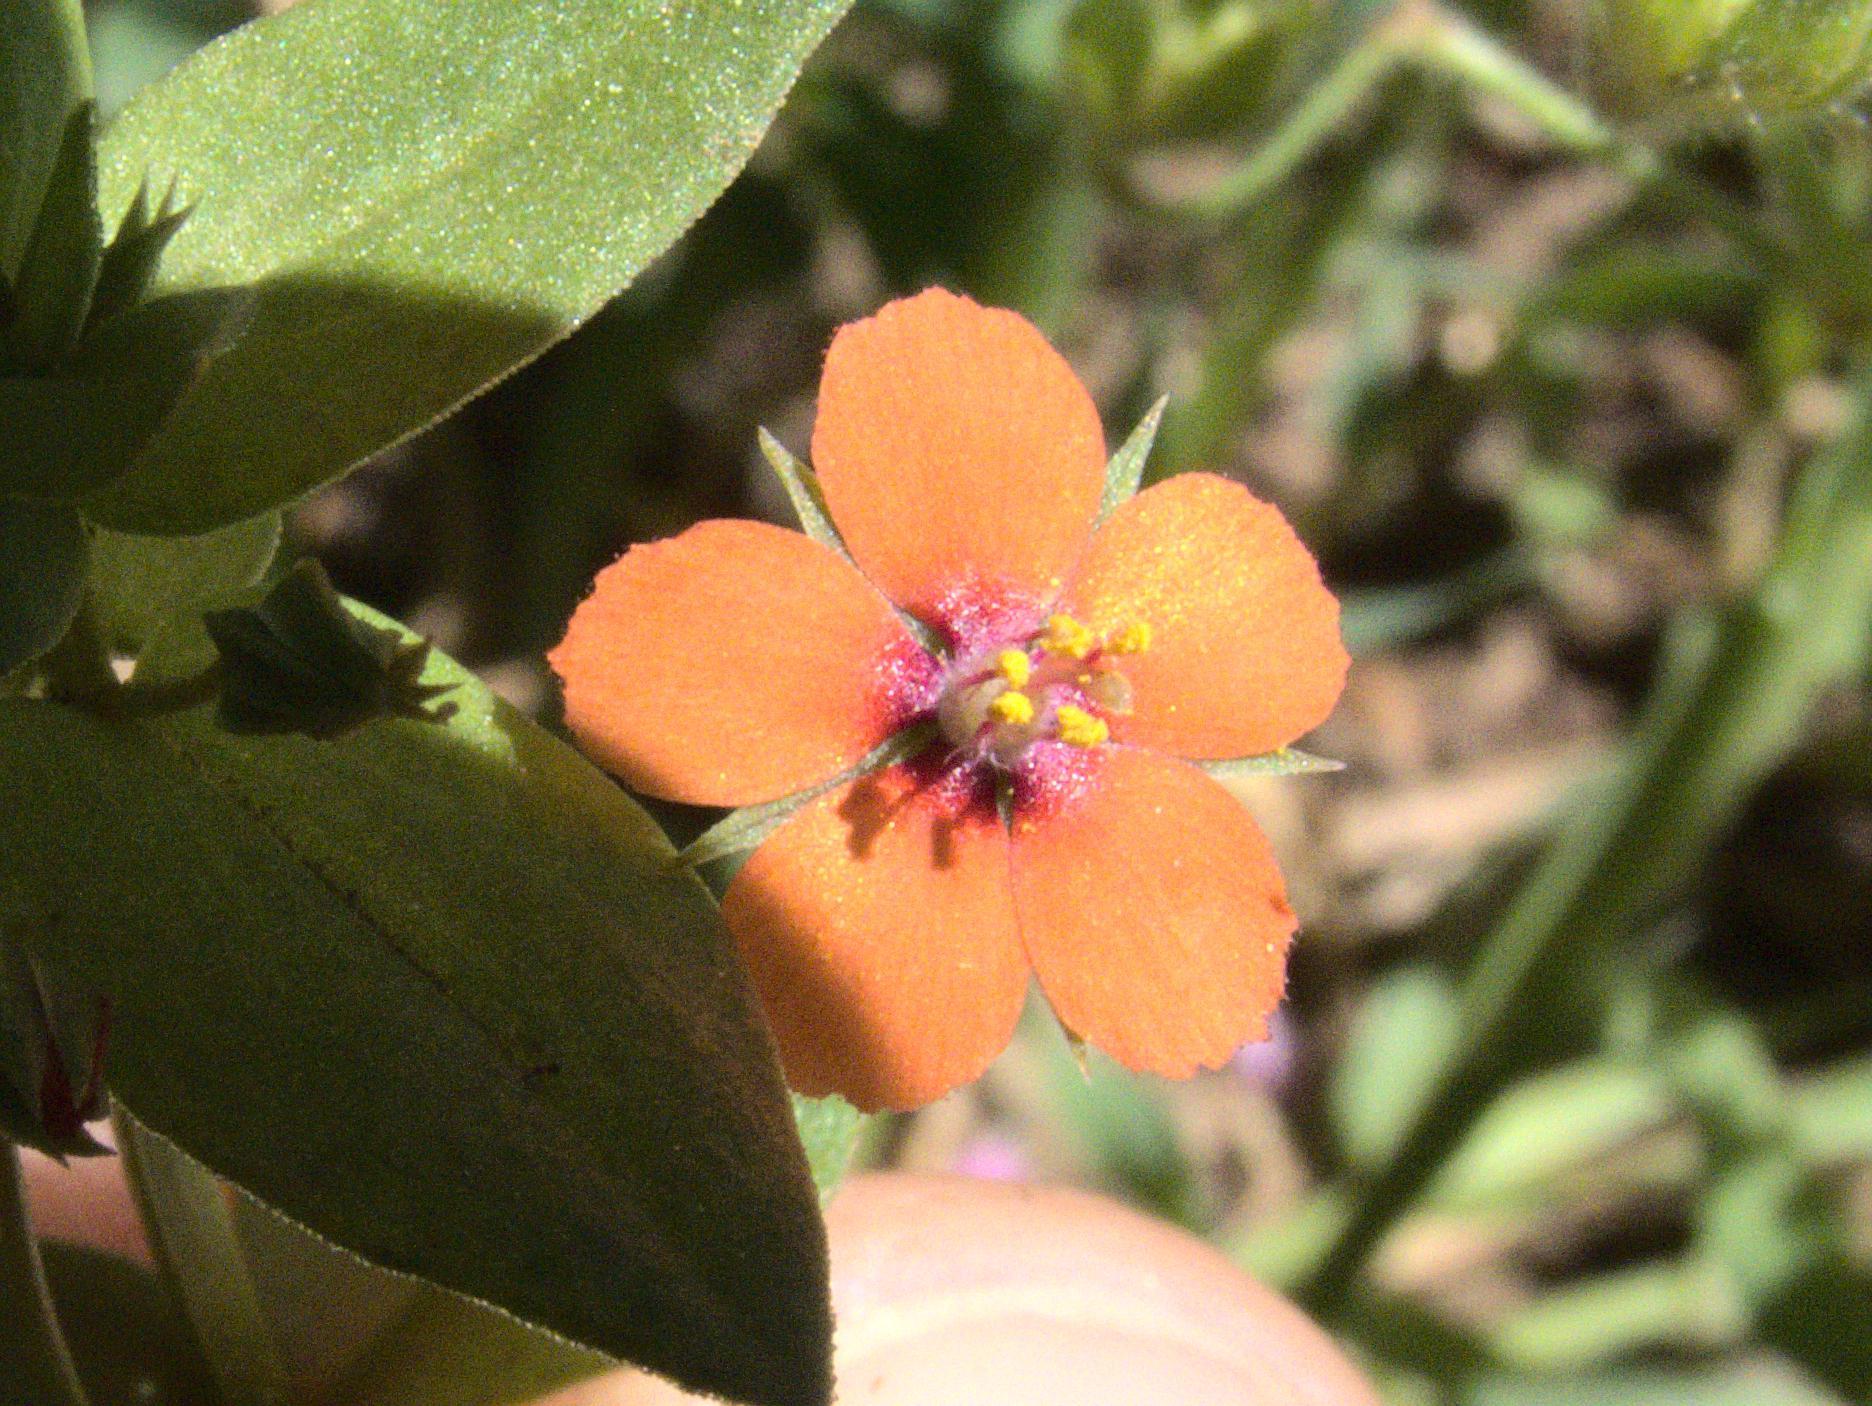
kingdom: Plantae
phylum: Tracheophyta
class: Magnoliopsida
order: Ericales
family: Primulaceae
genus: Lysimachia
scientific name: Lysimachia arvensis
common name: Scarlet pimpernel
